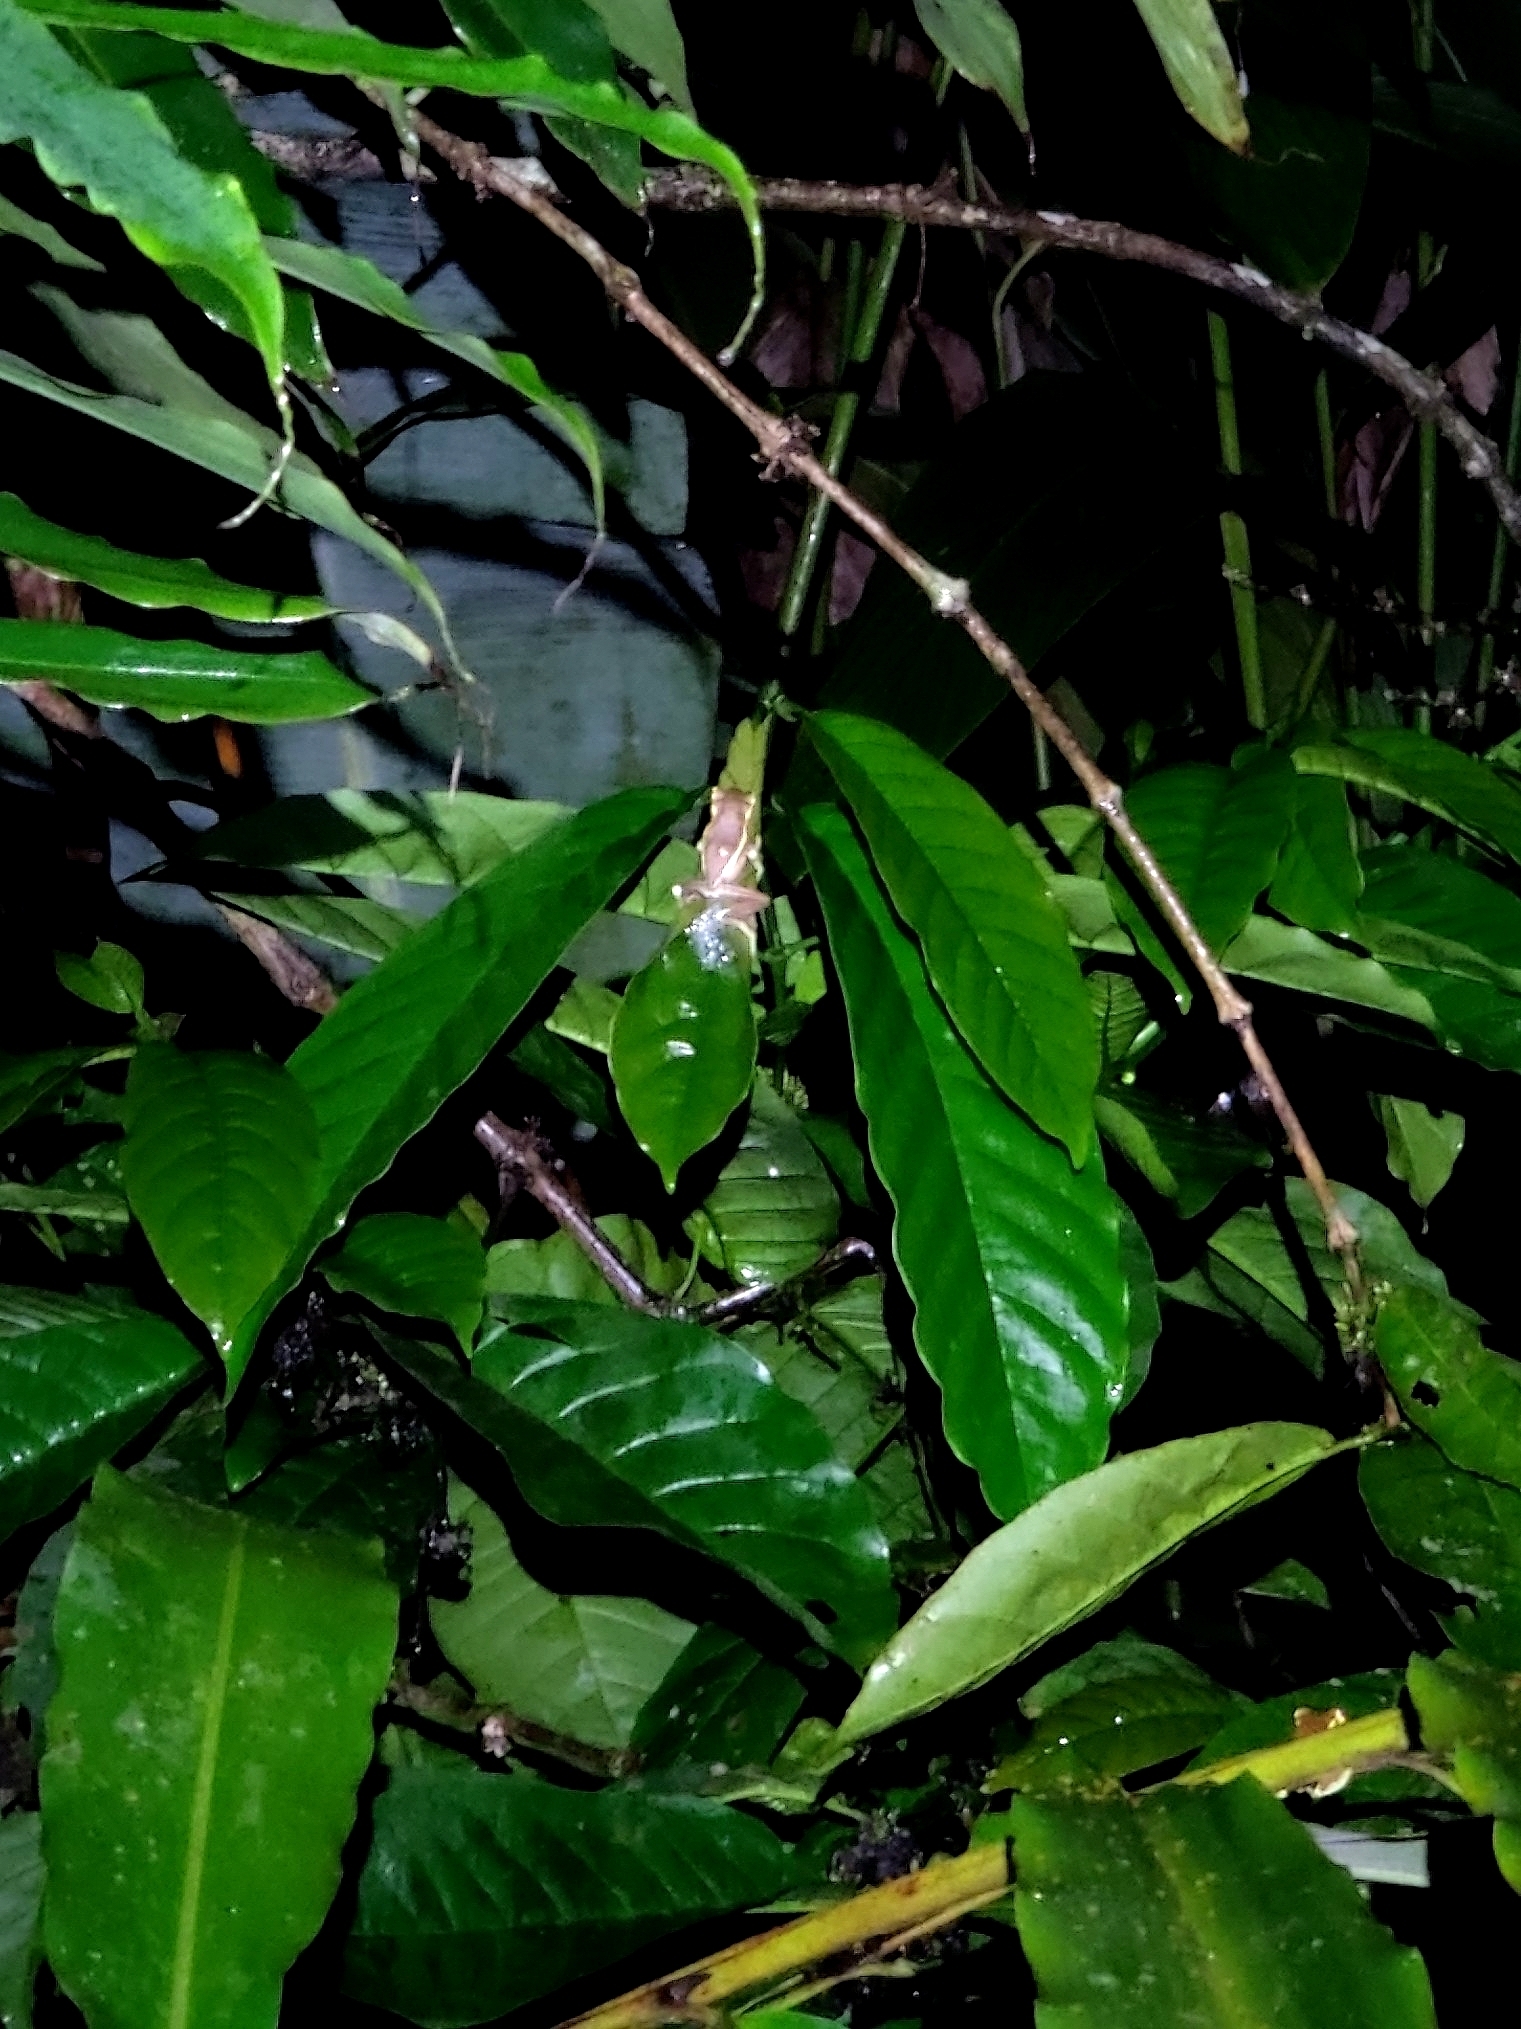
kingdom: Animalia
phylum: Chordata
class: Amphibia
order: Anura
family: Rhacophoridae
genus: Rhacophorus
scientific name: Rhacophorus lateralis
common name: Boulenger's tree frog
